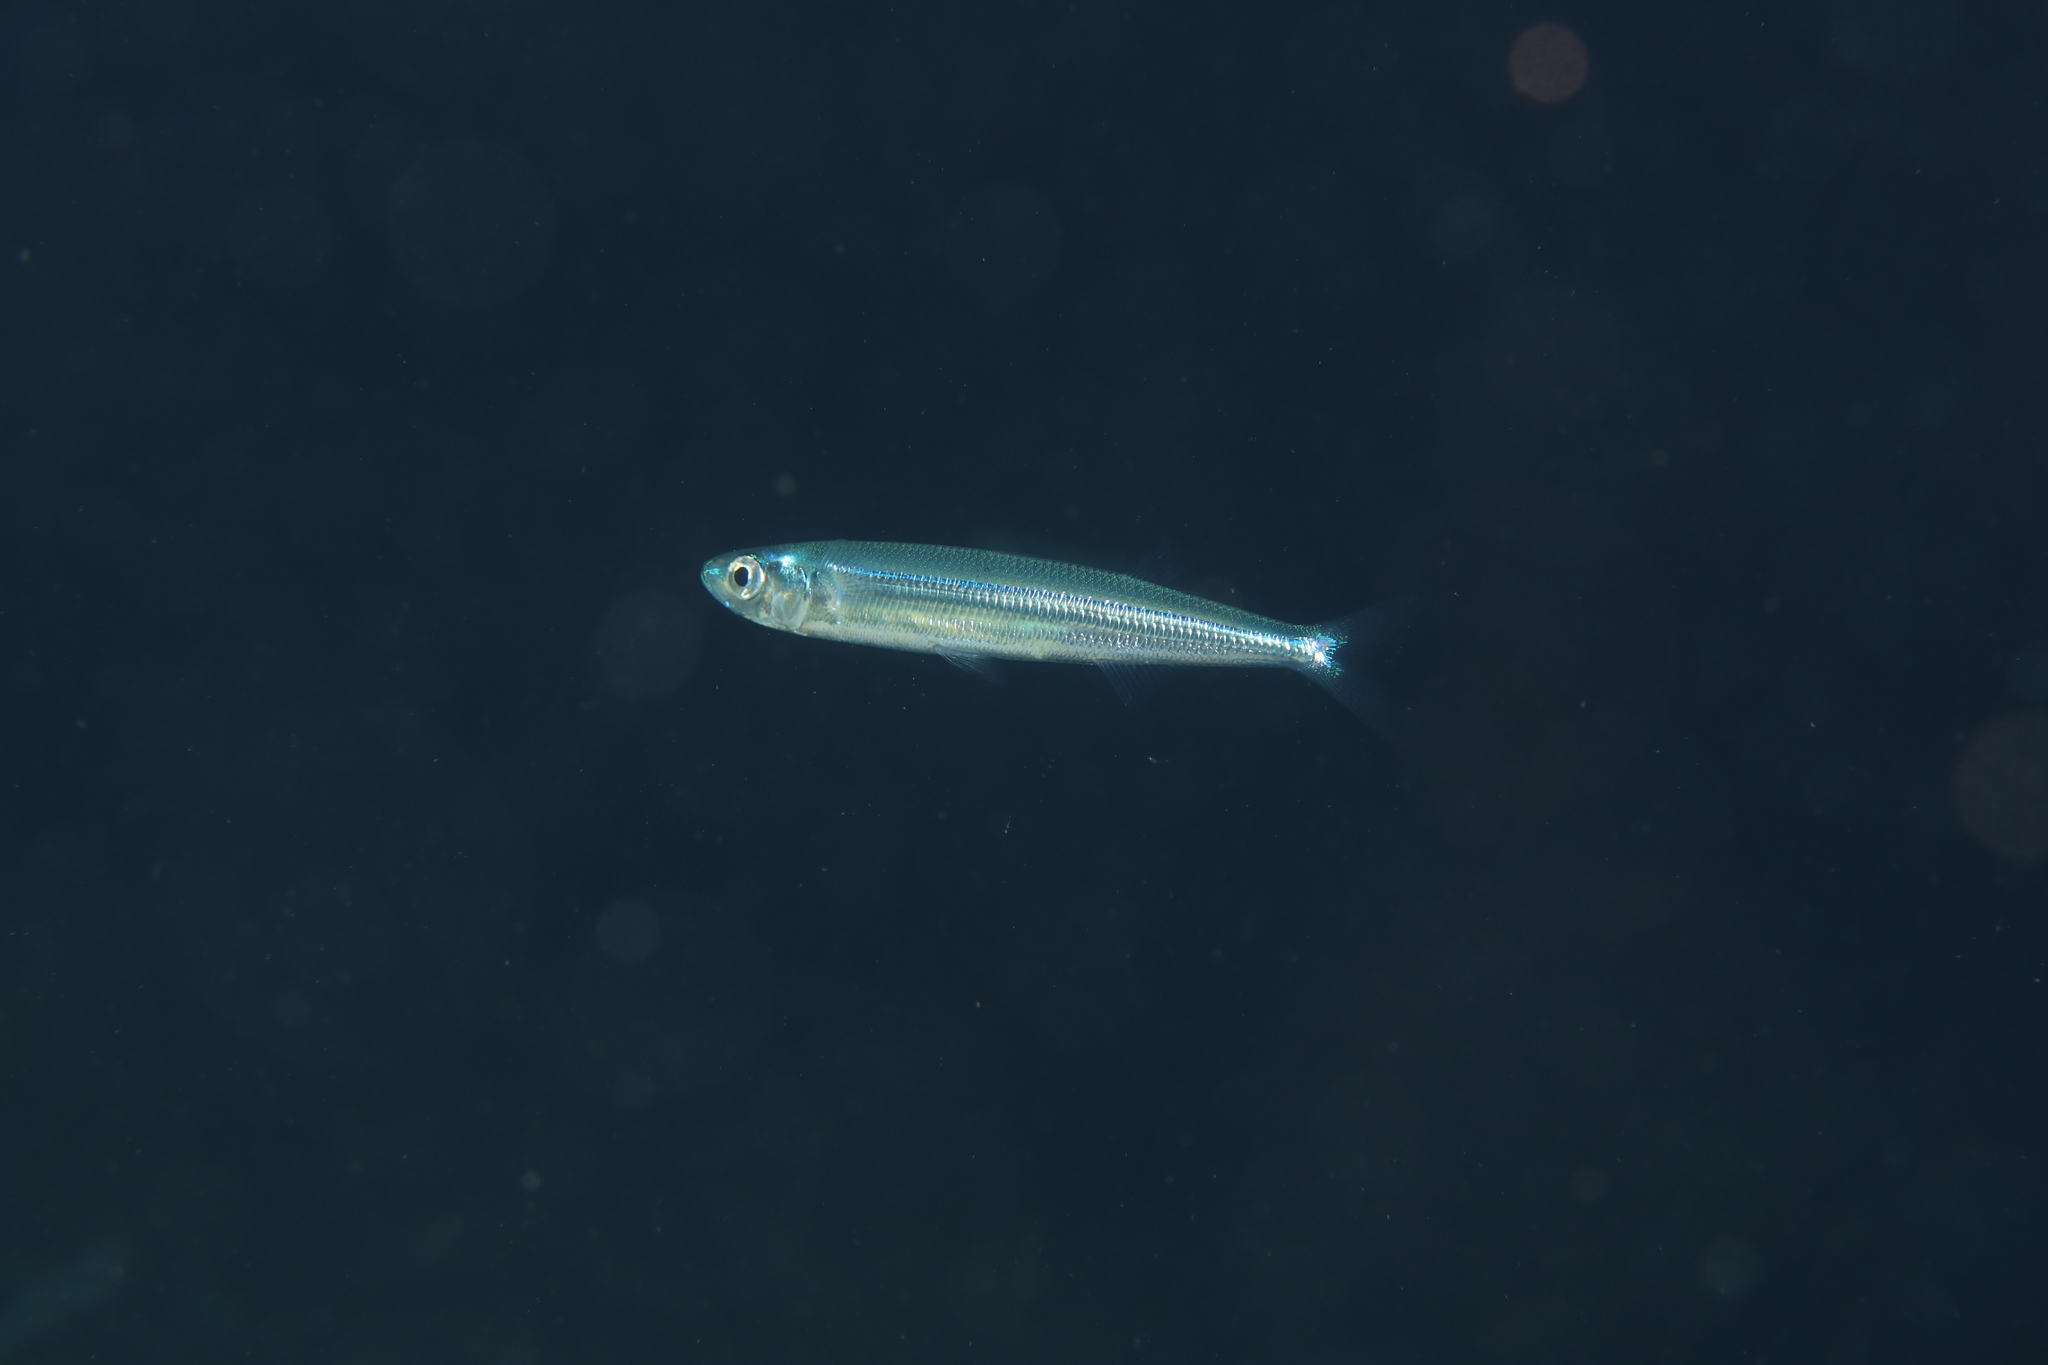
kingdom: Animalia
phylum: Chordata
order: Atheriniformes
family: Atherinidae
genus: Atherina
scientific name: Atherina hepsetus
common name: Mediterranean sand smelt
